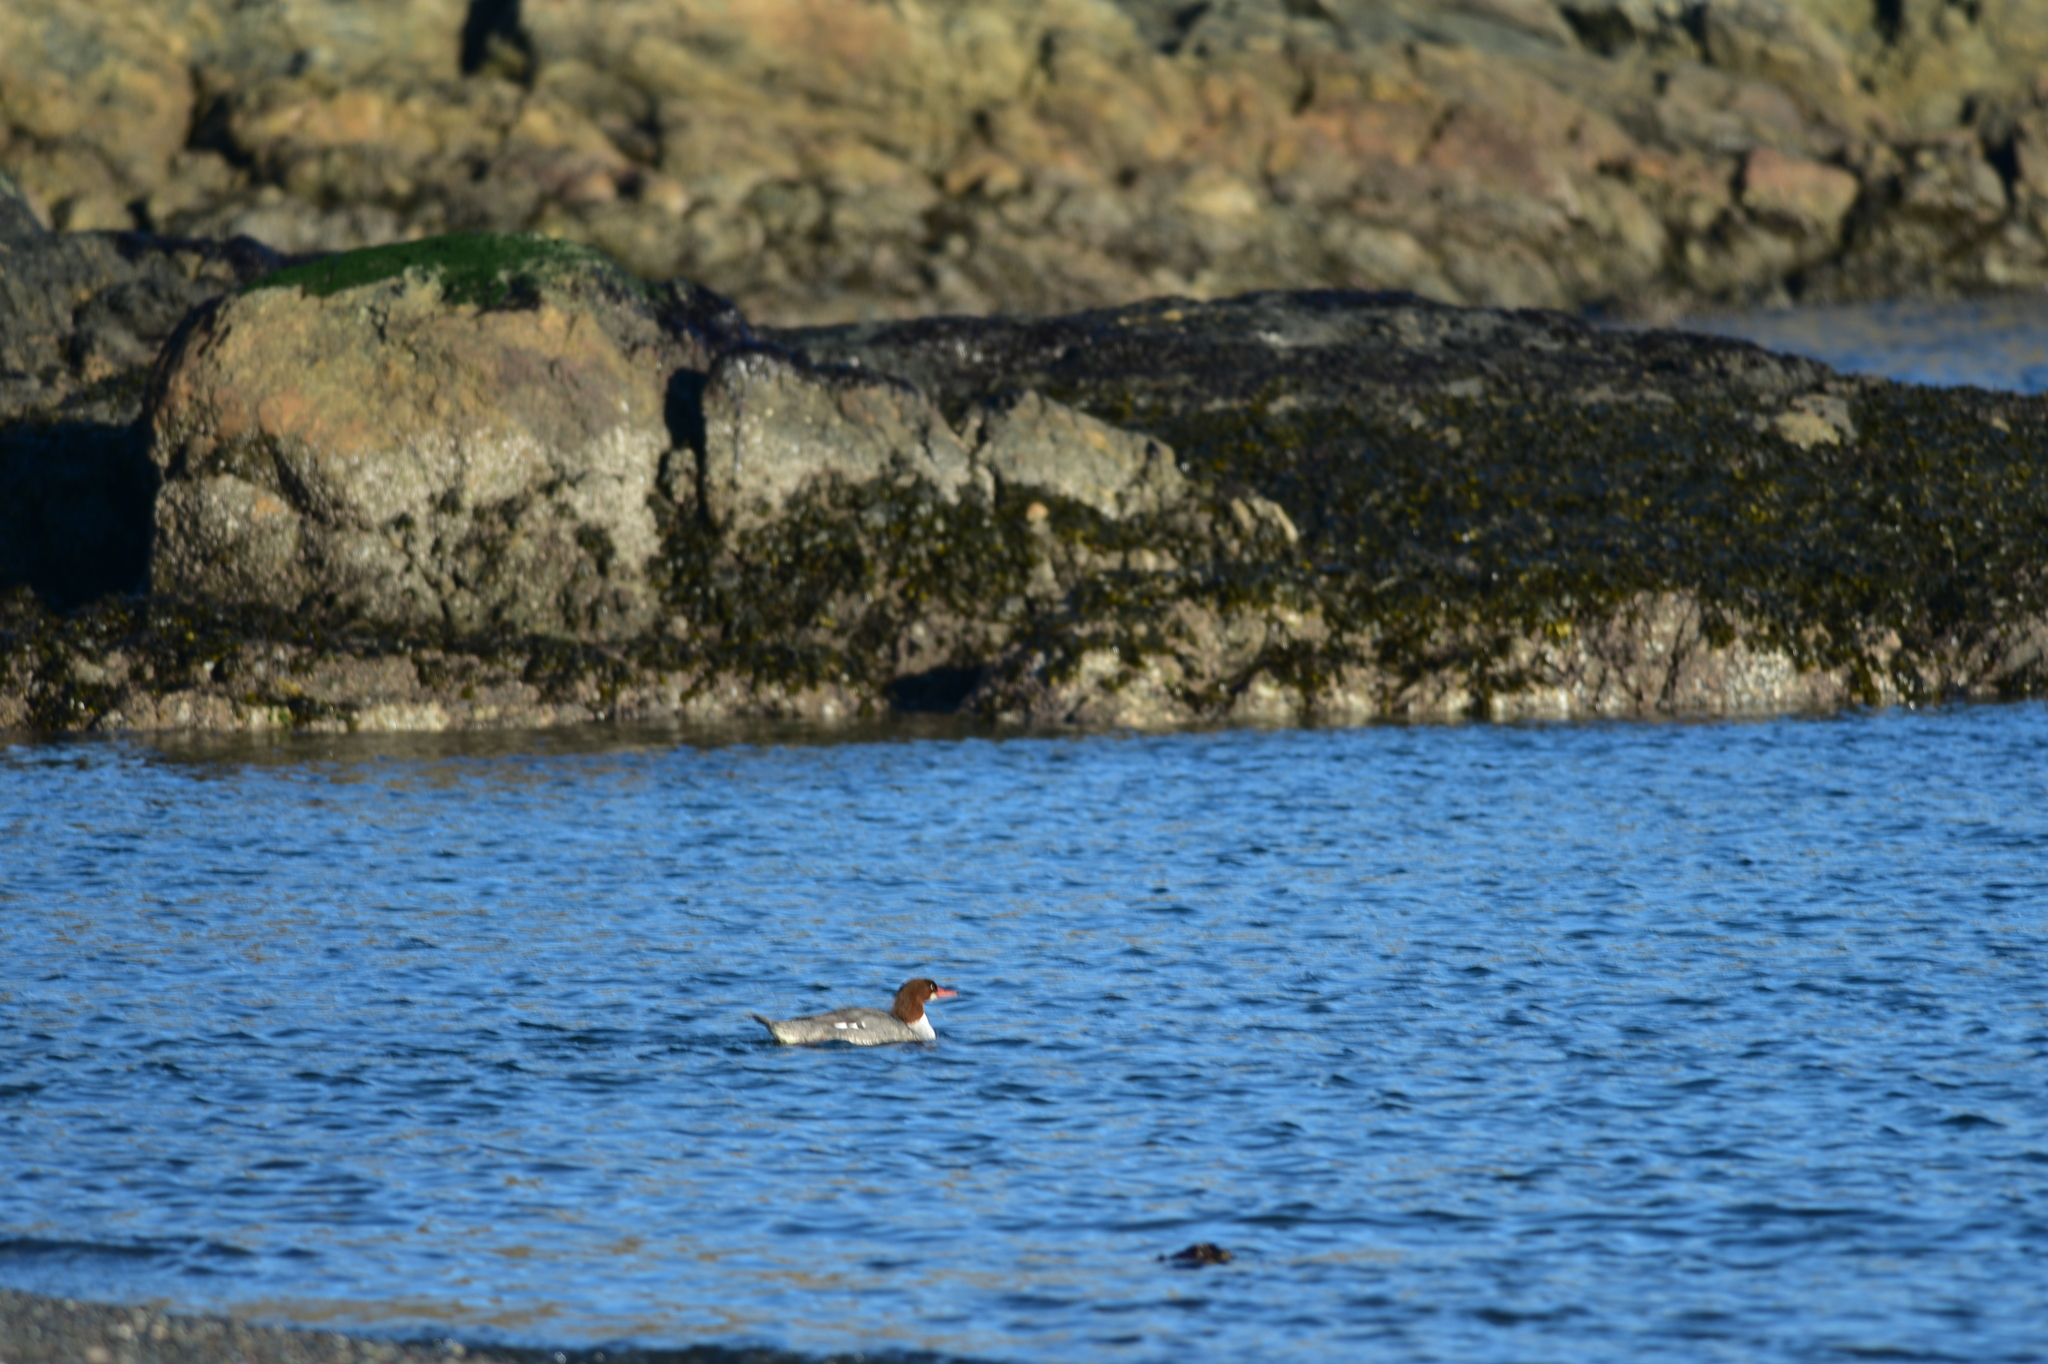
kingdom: Animalia
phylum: Chordata
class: Aves
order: Anseriformes
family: Anatidae
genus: Mergus
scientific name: Mergus merganser
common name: Common merganser
